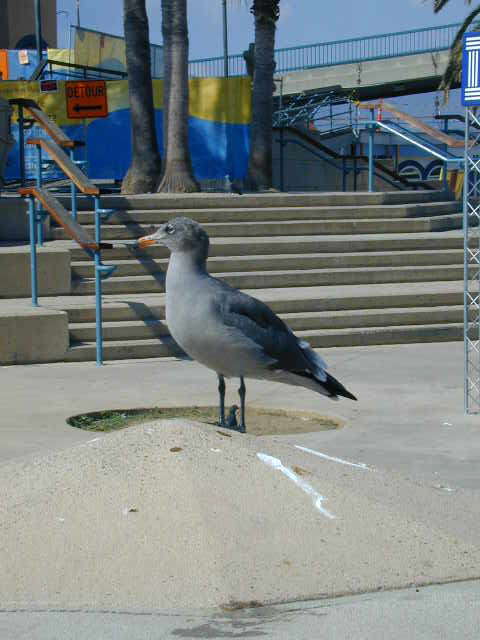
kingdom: Animalia
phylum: Chordata
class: Aves
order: Charadriiformes
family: Laridae
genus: Larus
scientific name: Larus heermanni
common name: Heermann's gull
